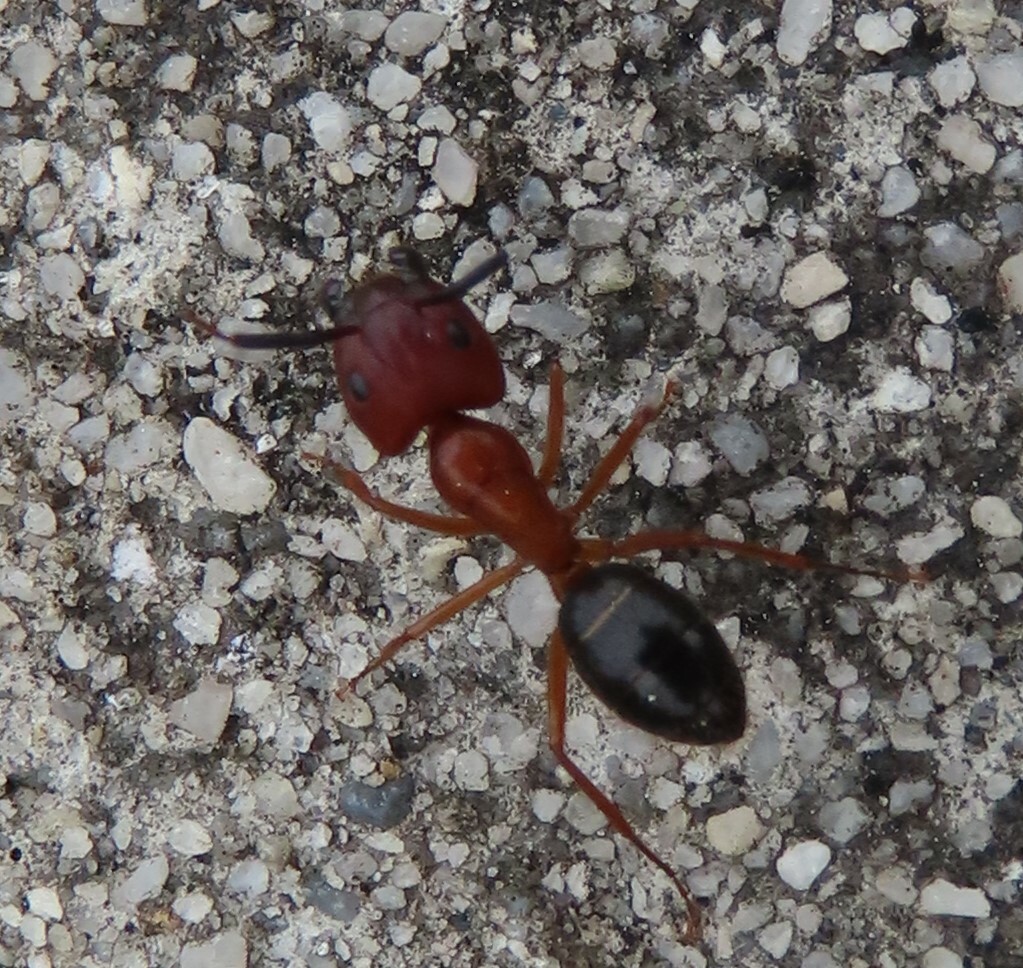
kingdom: Animalia
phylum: Arthropoda
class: Insecta
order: Hymenoptera
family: Formicidae
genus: Camponotus
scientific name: Camponotus floridanus
